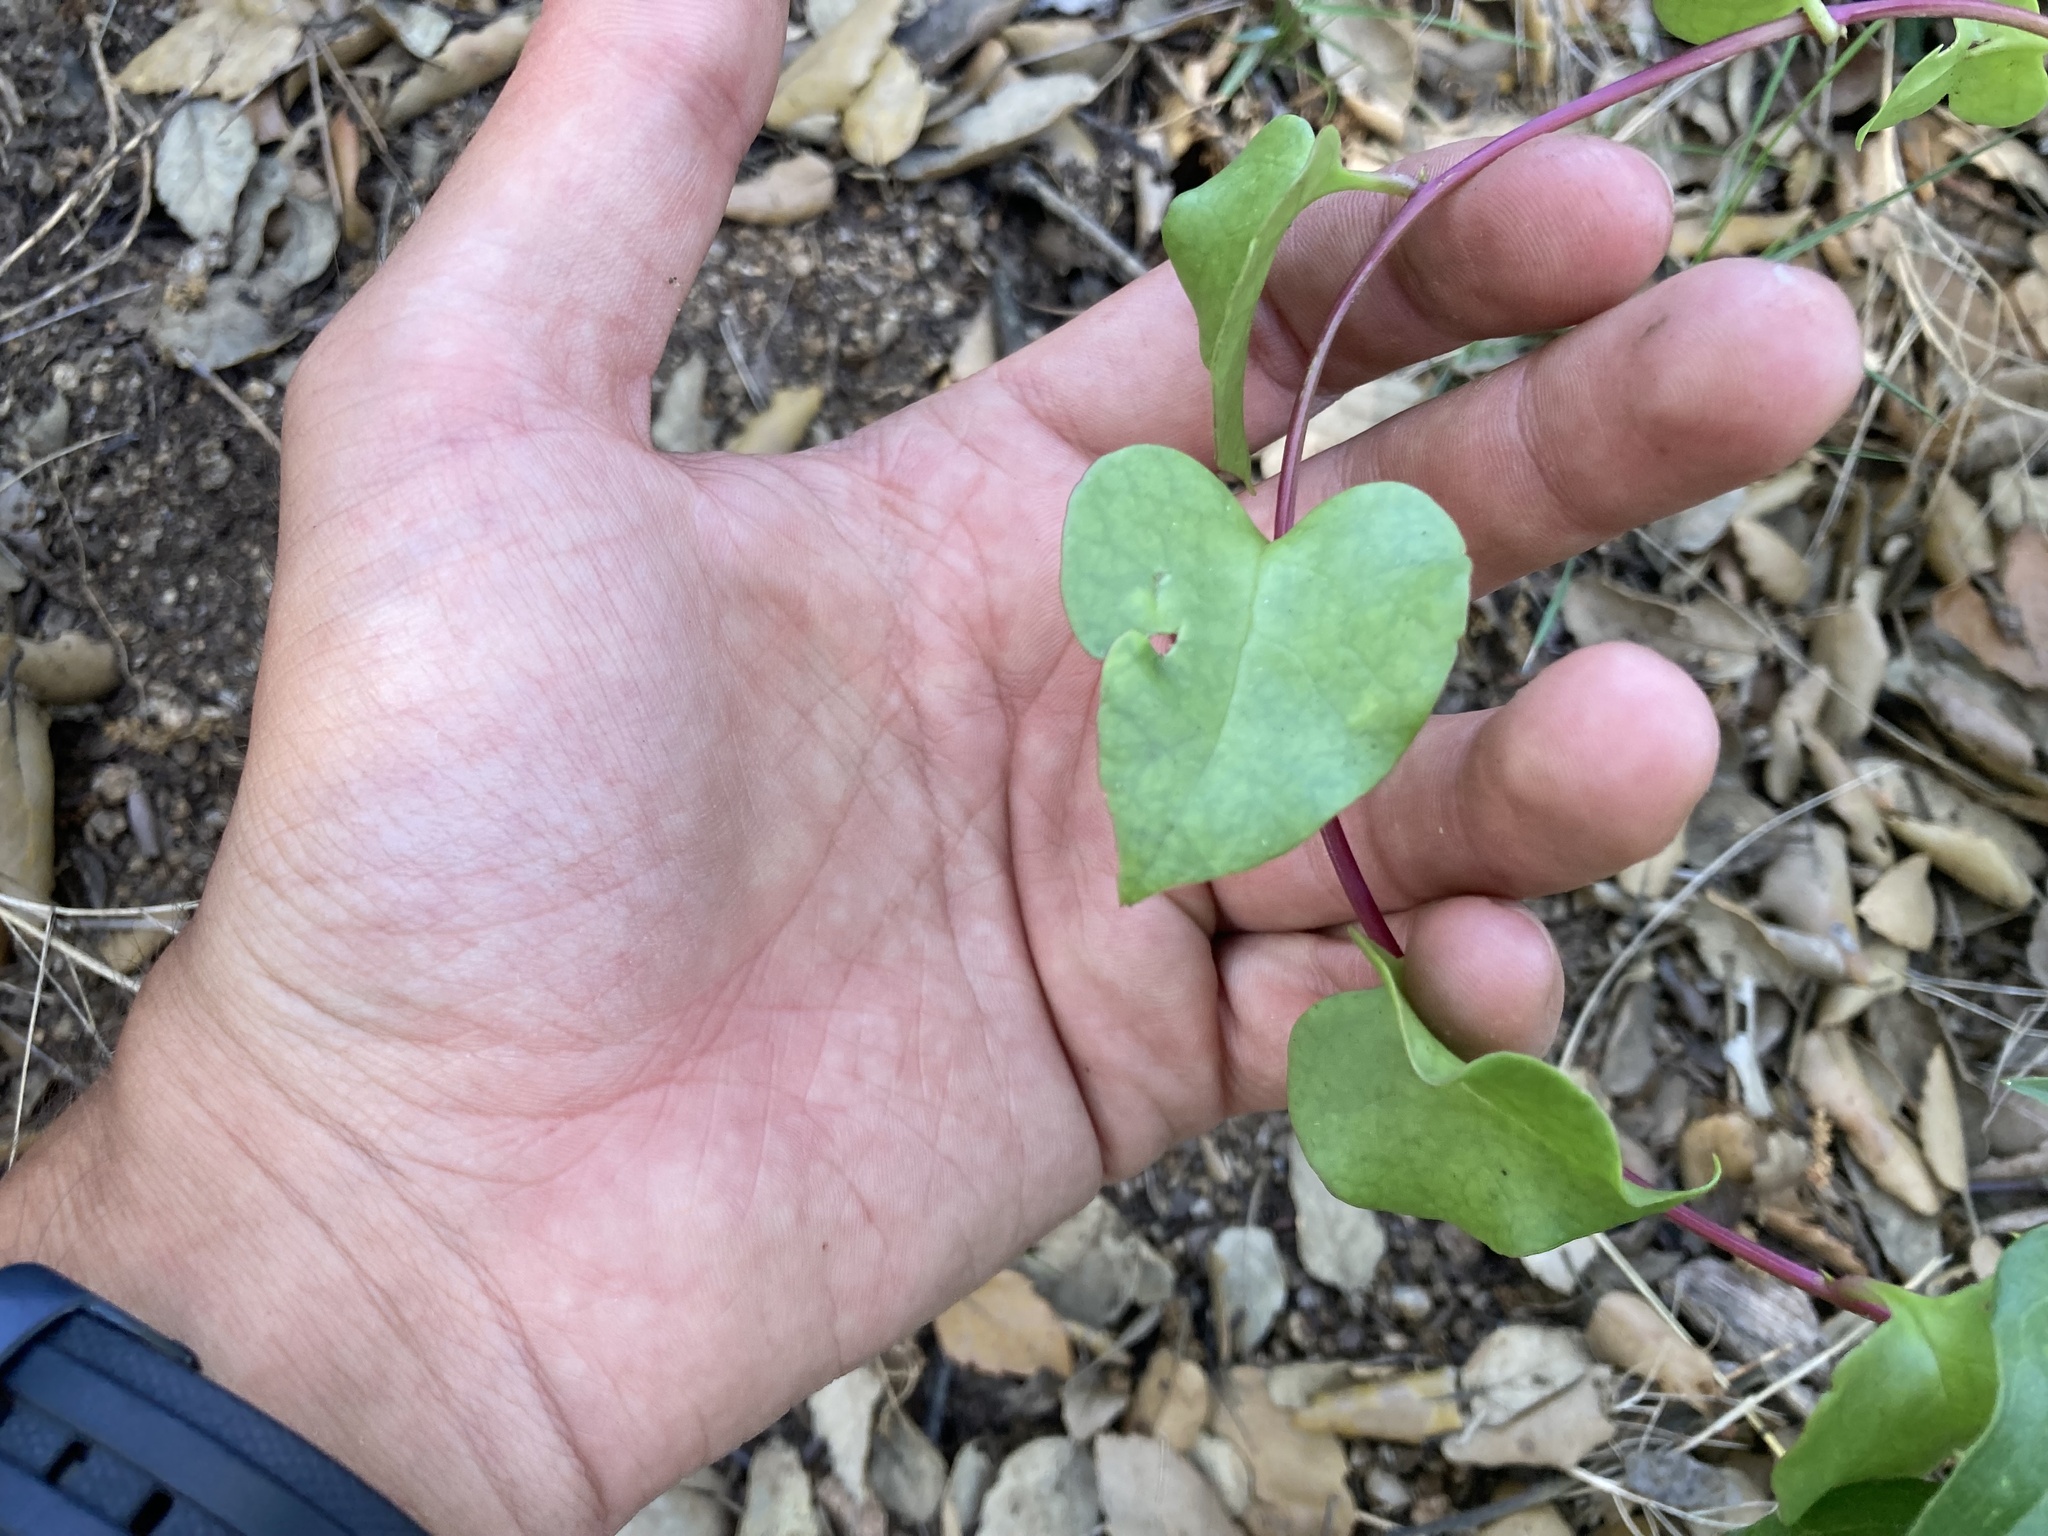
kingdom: Plantae
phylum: Tracheophyta
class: Magnoliopsida
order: Caryophyllales
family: Basellaceae
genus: Anredera
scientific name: Anredera cordifolia
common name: Heartleaf madeiravine
